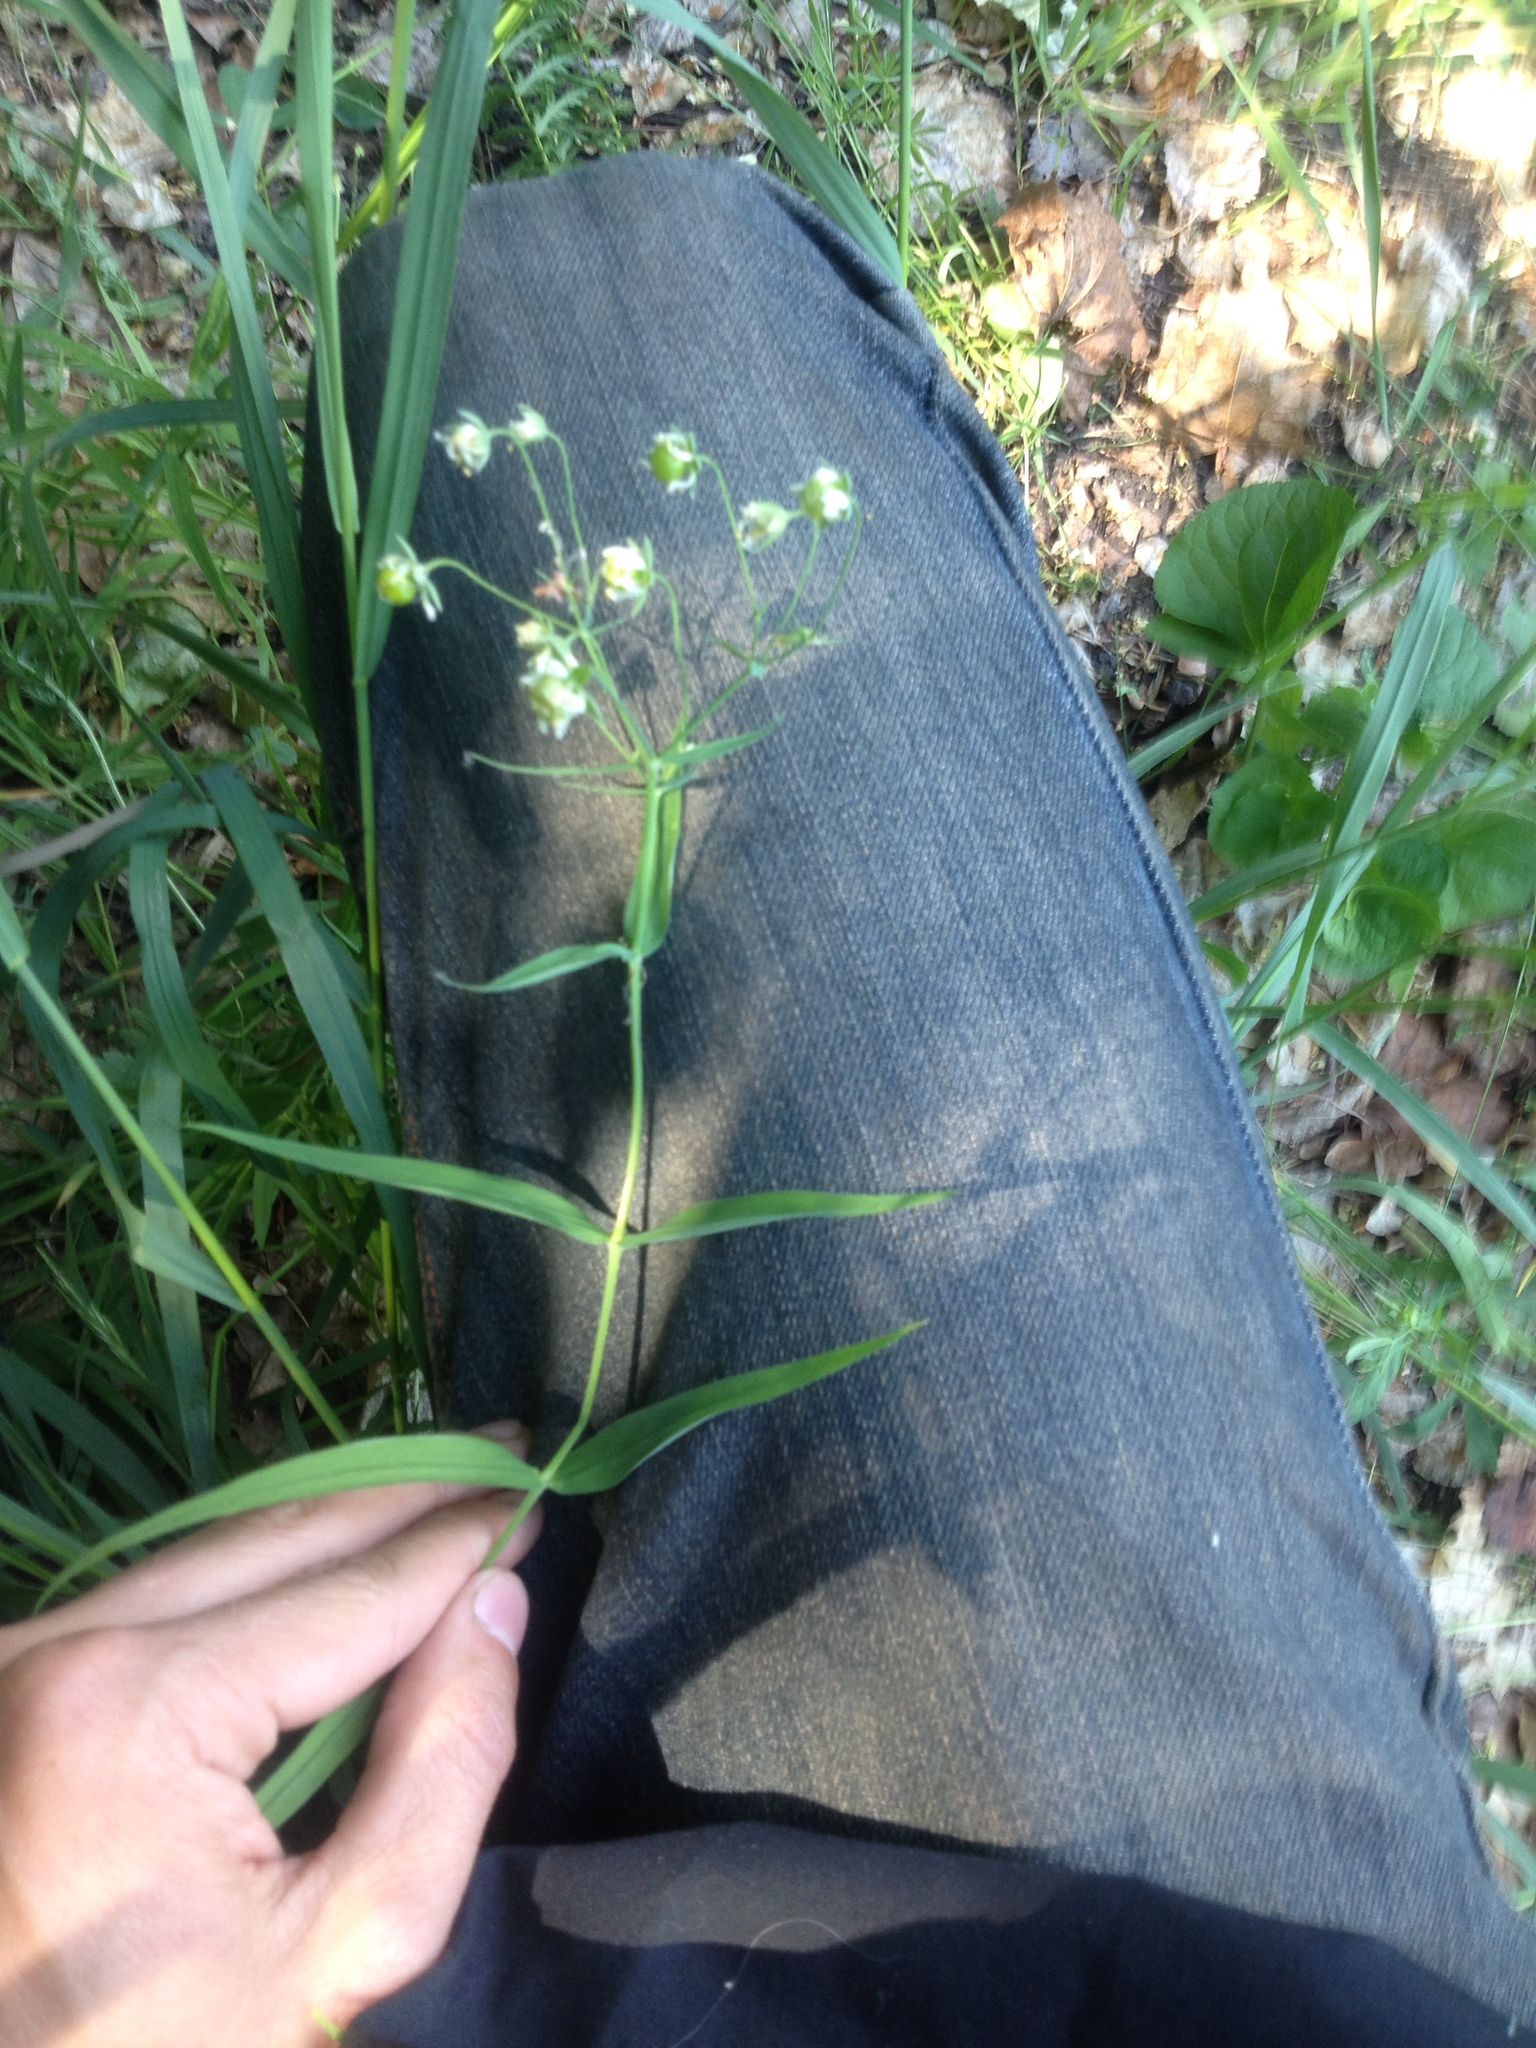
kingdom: Plantae
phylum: Tracheophyta
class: Magnoliopsida
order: Caryophyllales
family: Caryophyllaceae
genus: Rabelera
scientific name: Rabelera holostea
